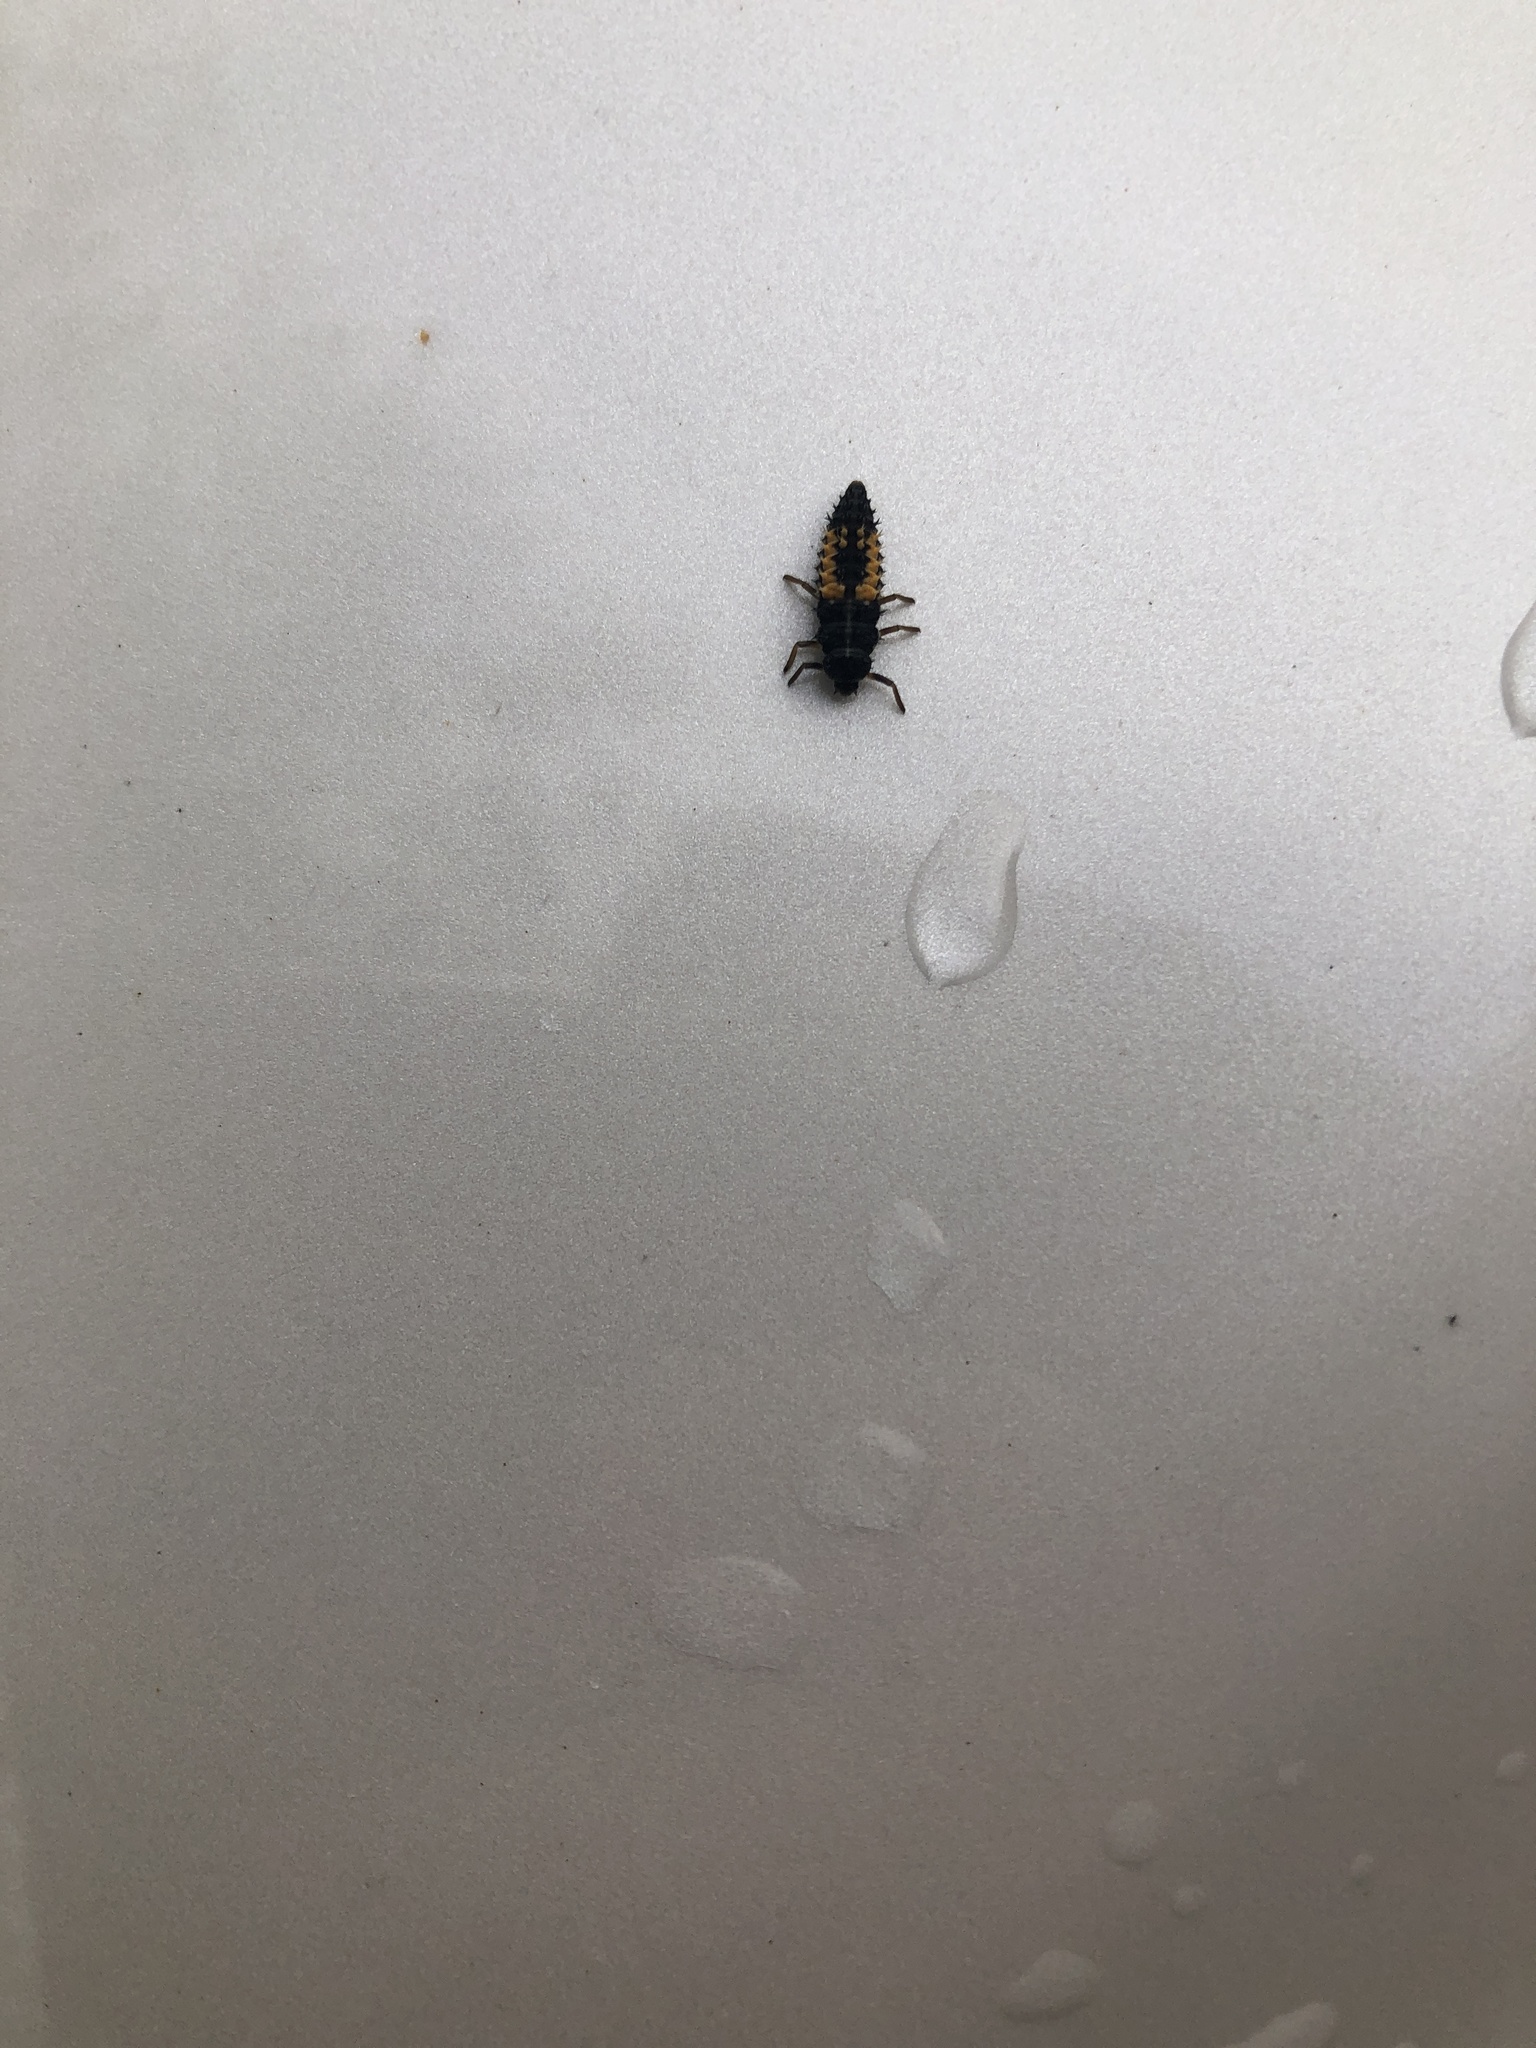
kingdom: Animalia
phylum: Arthropoda
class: Insecta
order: Coleoptera
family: Coccinellidae
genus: Harmonia
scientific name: Harmonia axyridis
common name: Harlequin ladybird
